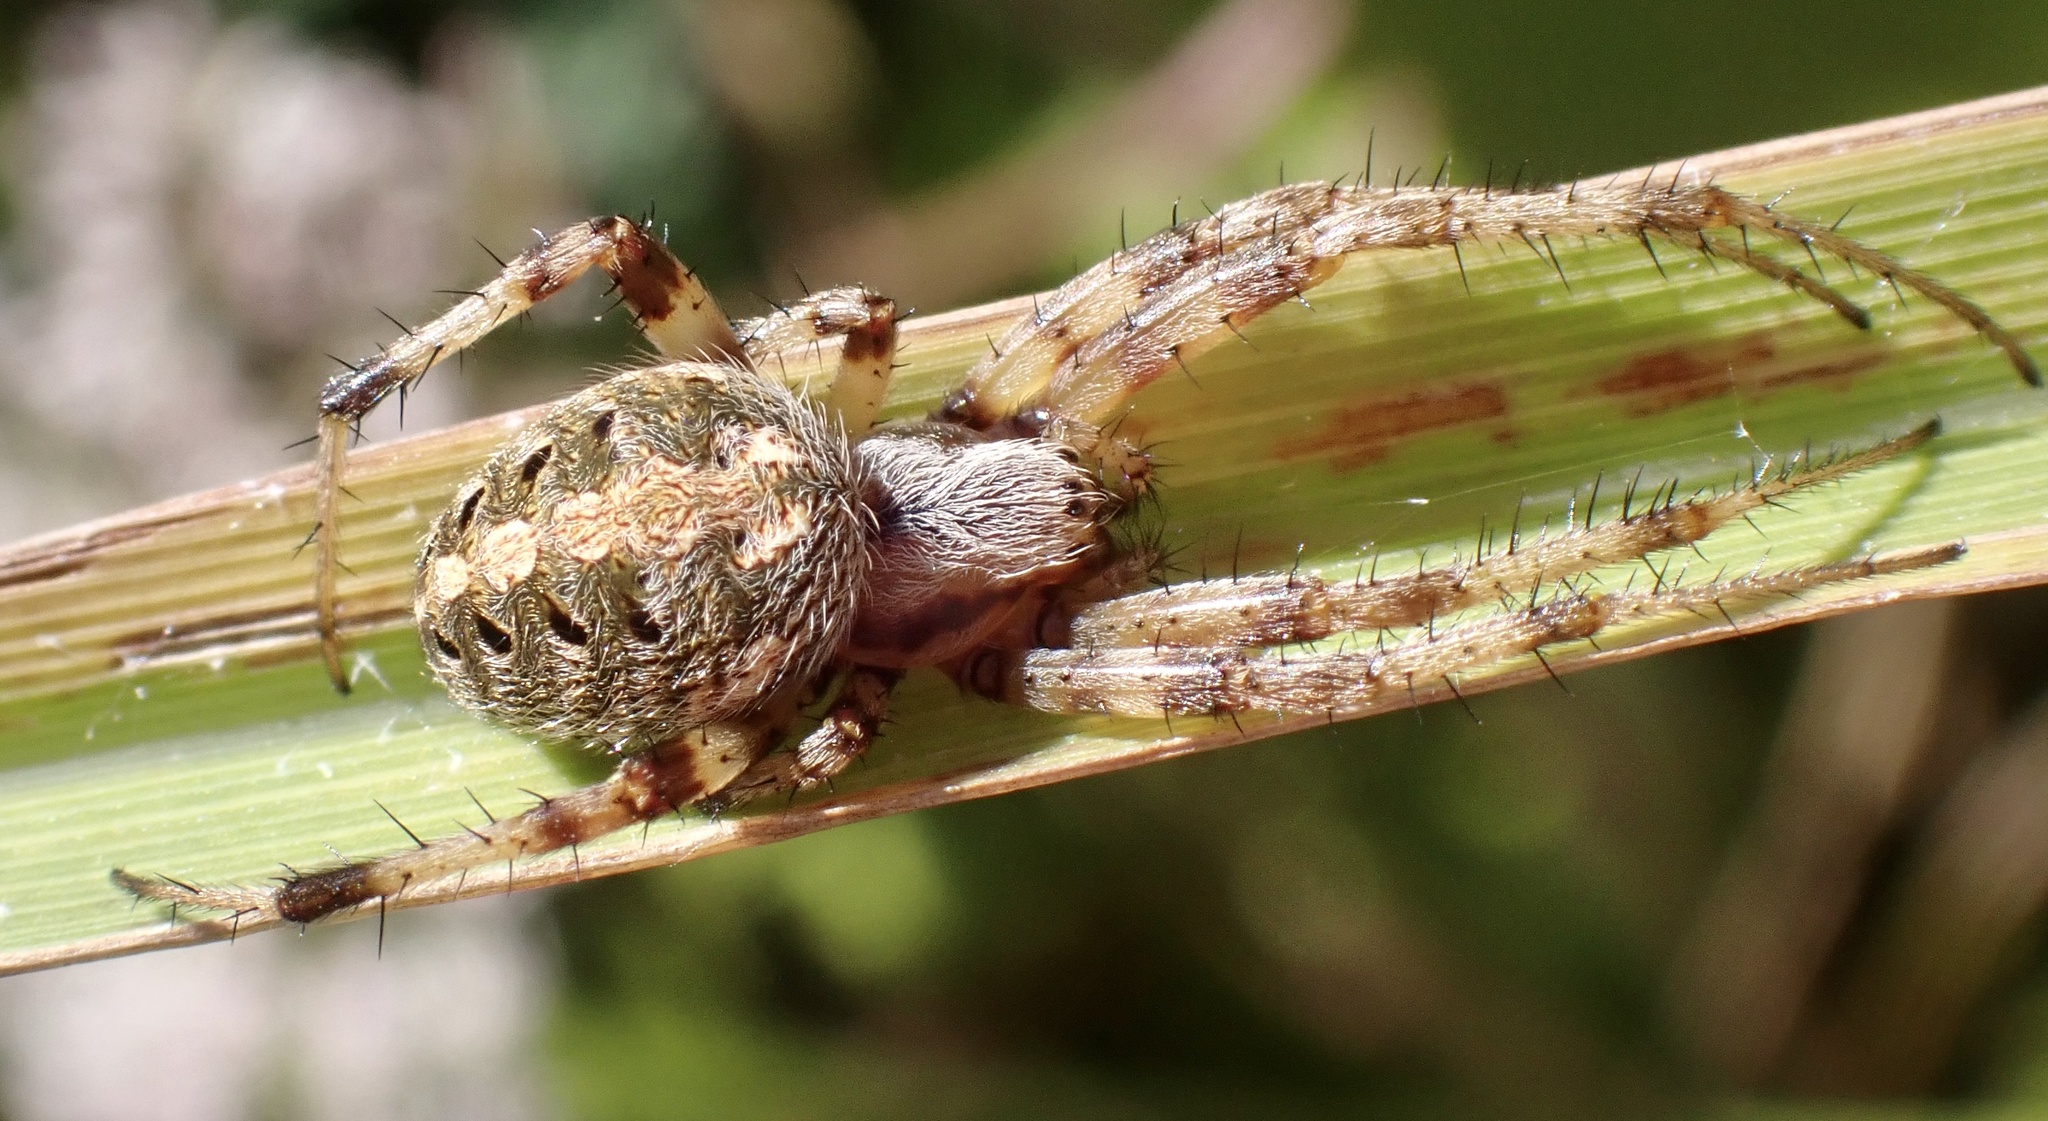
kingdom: Animalia
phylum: Arthropoda
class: Arachnida
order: Araneae
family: Araneidae
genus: Neoscona
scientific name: Neoscona arabesca
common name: Orb weavers
